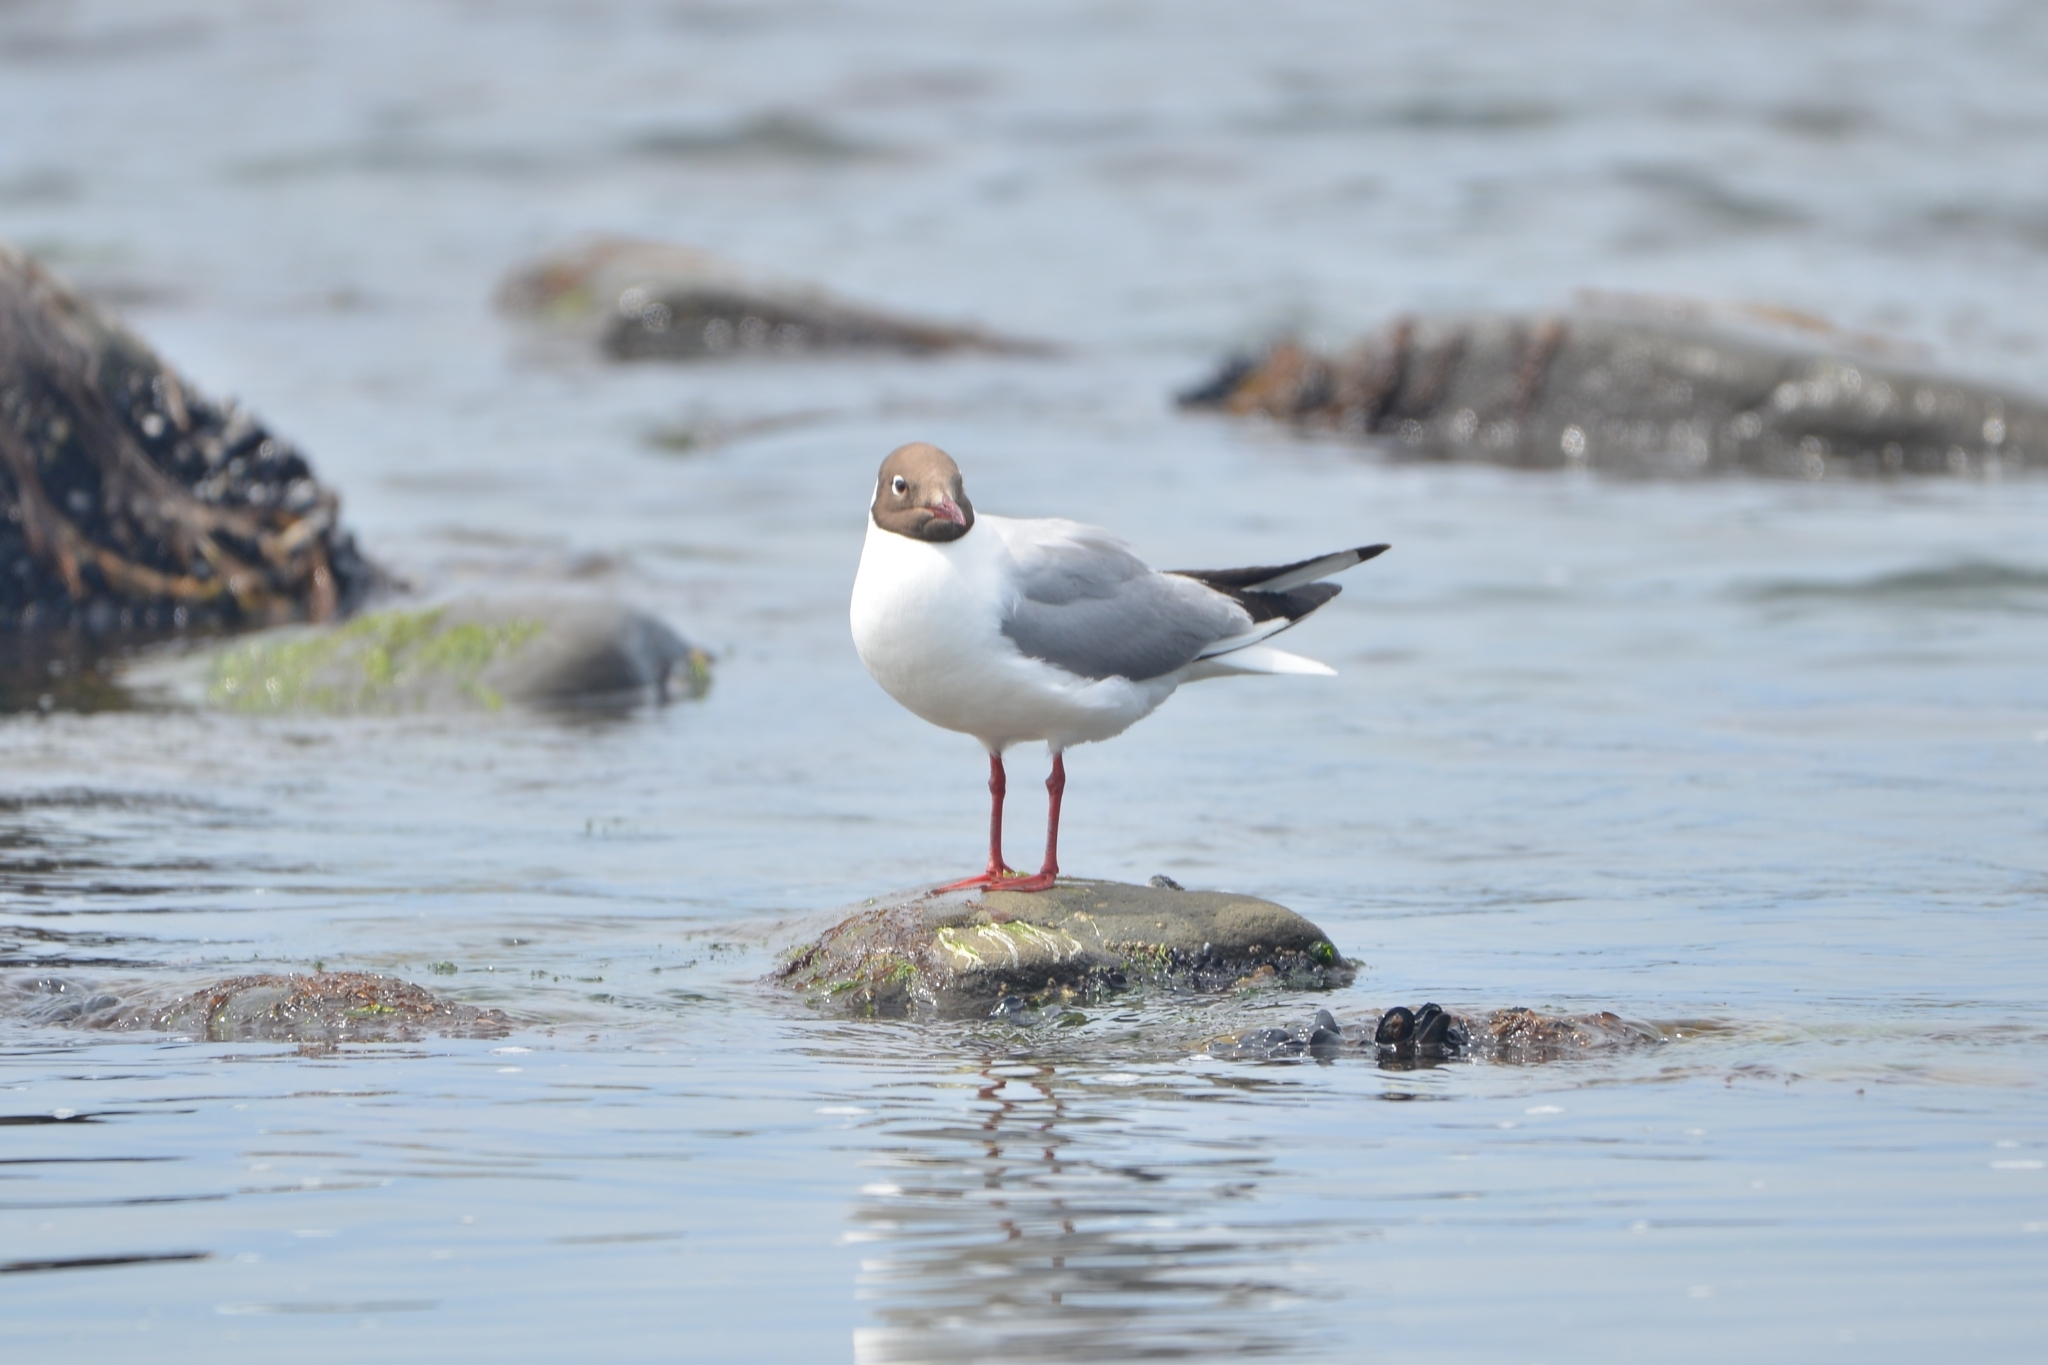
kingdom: Animalia
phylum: Chordata
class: Aves
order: Charadriiformes
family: Laridae
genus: Chroicocephalus
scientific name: Chroicocephalus ridibundus
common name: Black-headed gull
